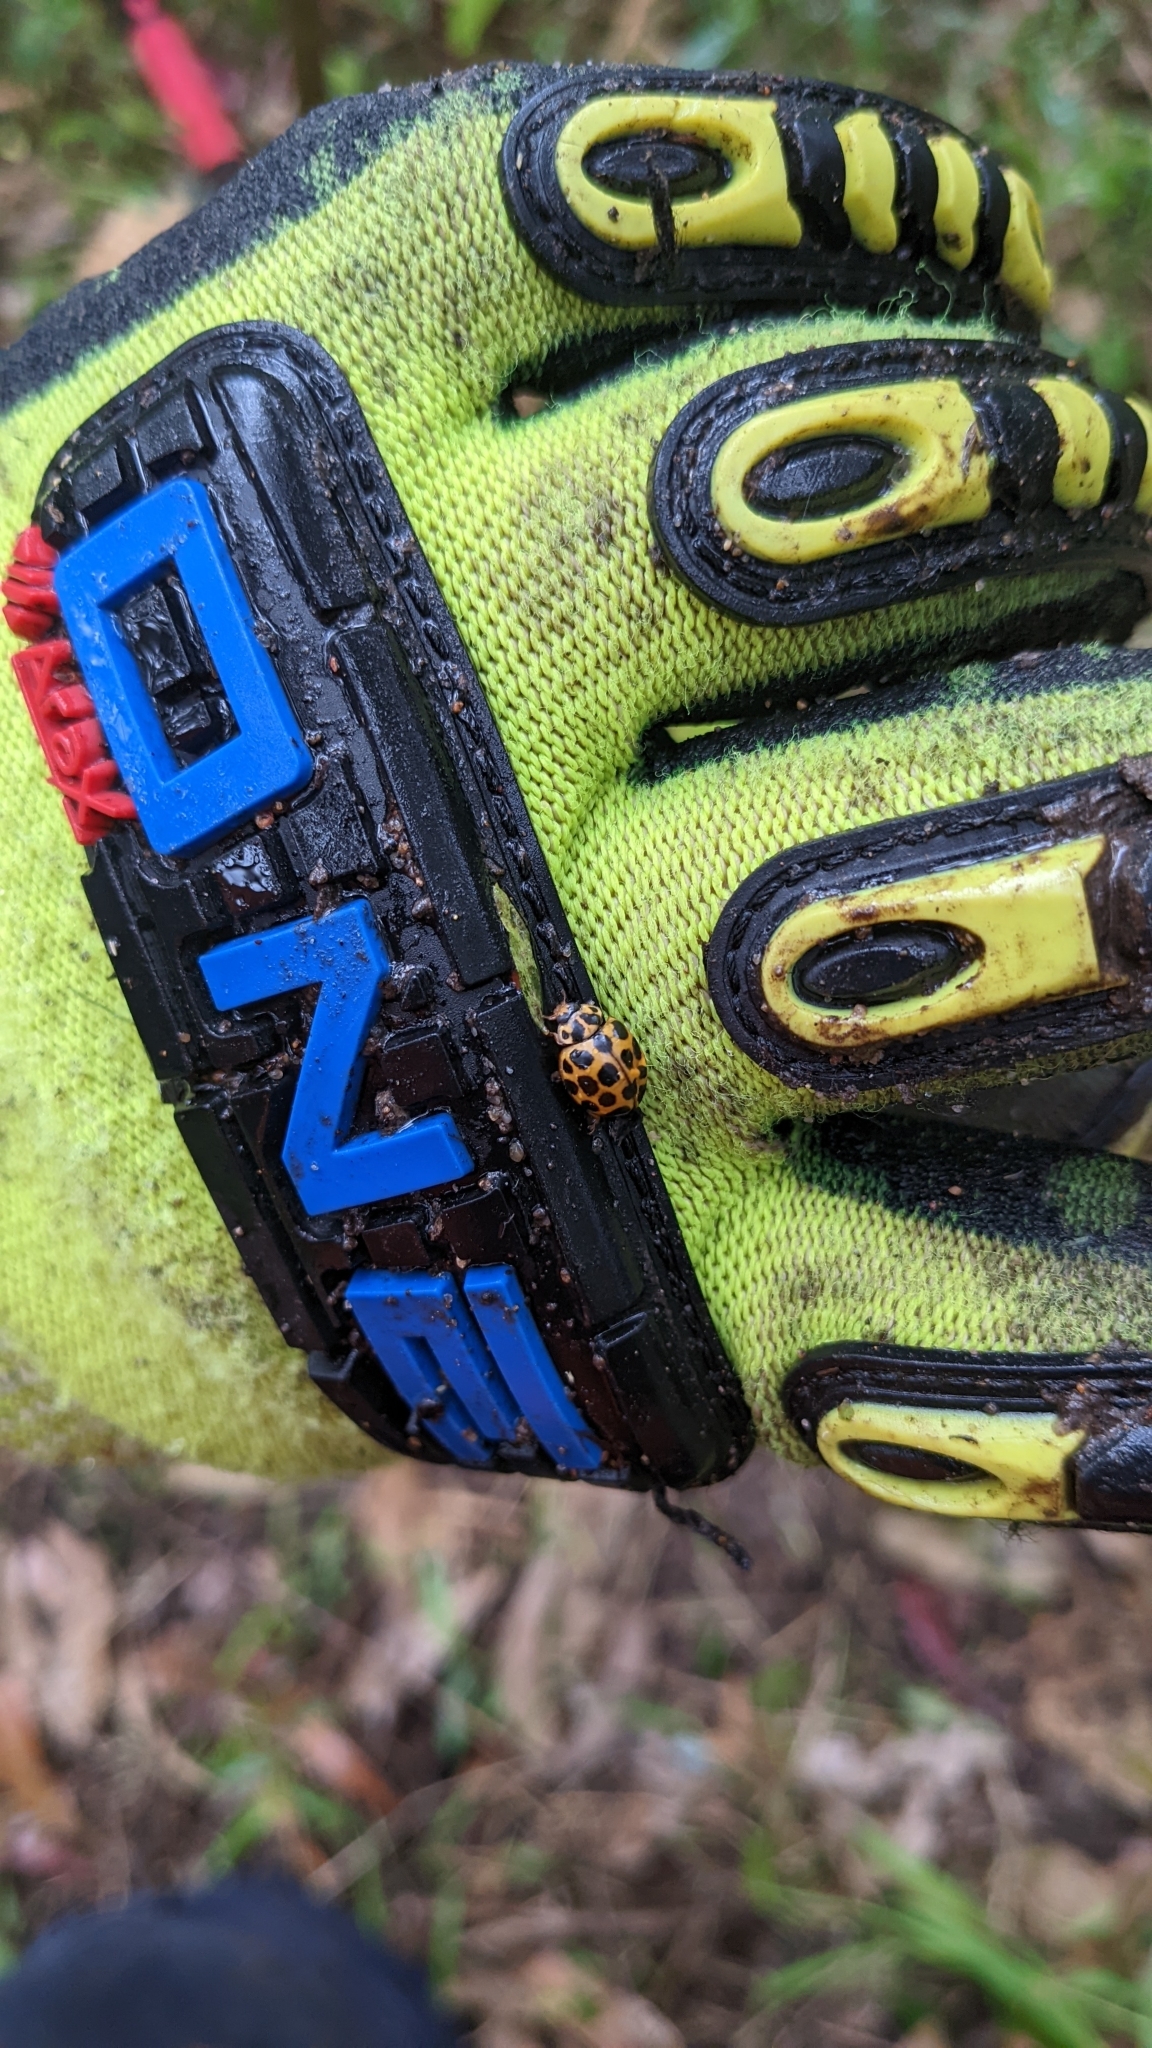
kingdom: Animalia
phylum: Arthropoda
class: Insecta
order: Coleoptera
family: Coccinellidae
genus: Harmonia
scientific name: Harmonia conformis
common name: Common spotted ladybird beetle
